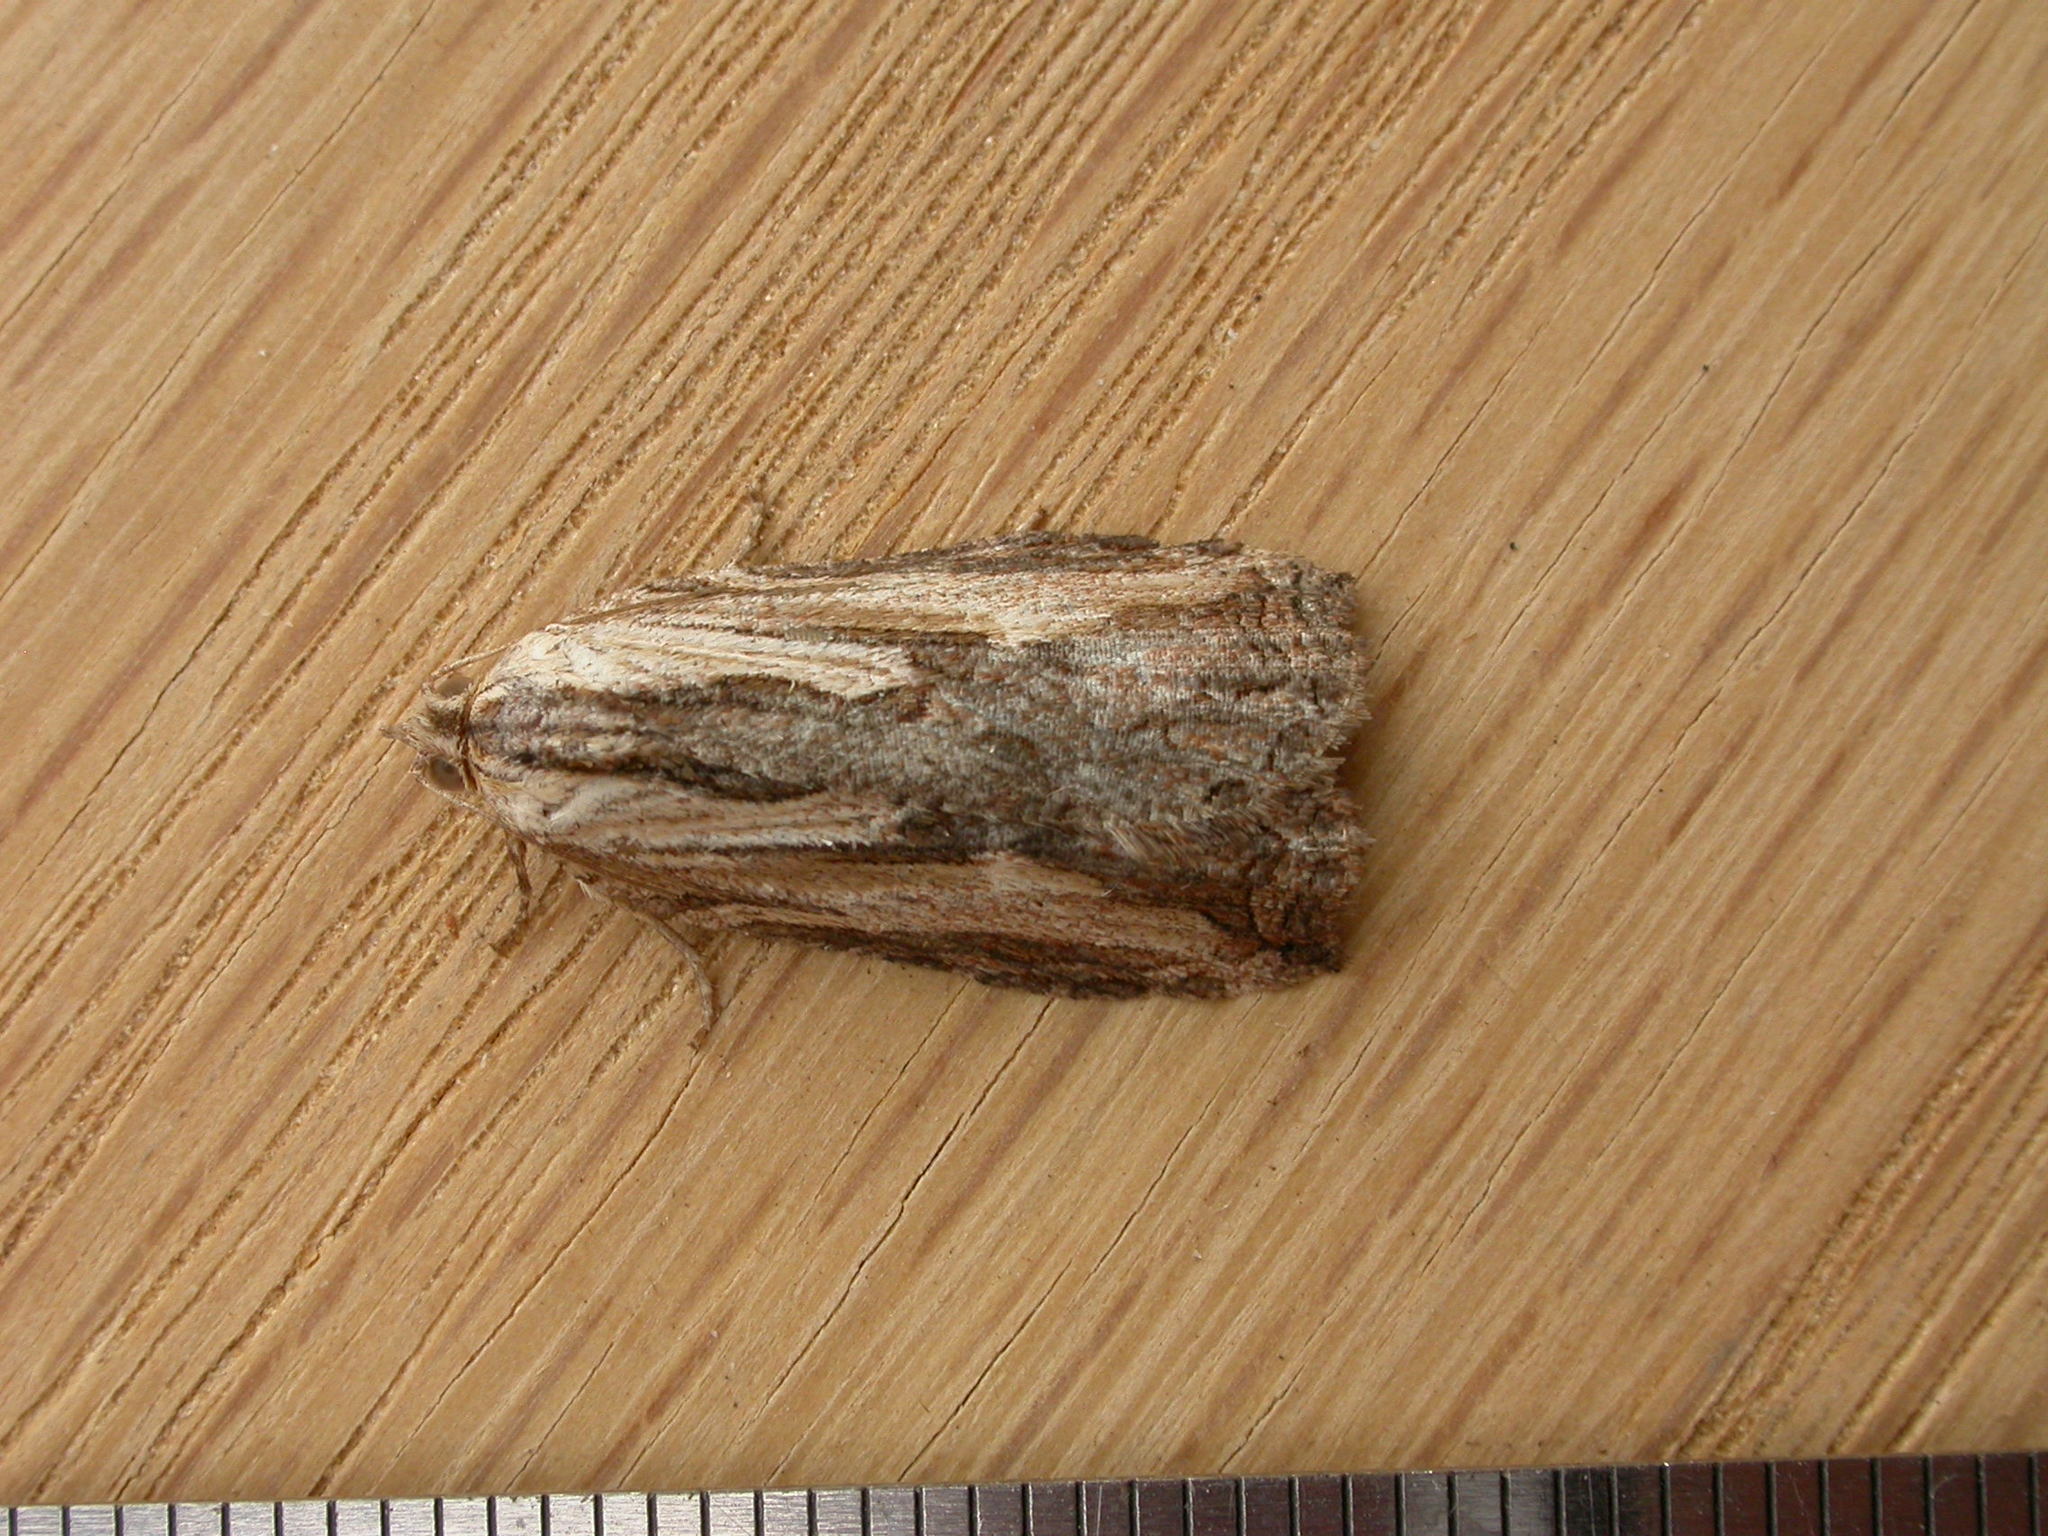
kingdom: Animalia
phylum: Arthropoda
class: Insecta
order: Lepidoptera
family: Tortricidae
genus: Cryptoptila
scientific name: Cryptoptila immersana
